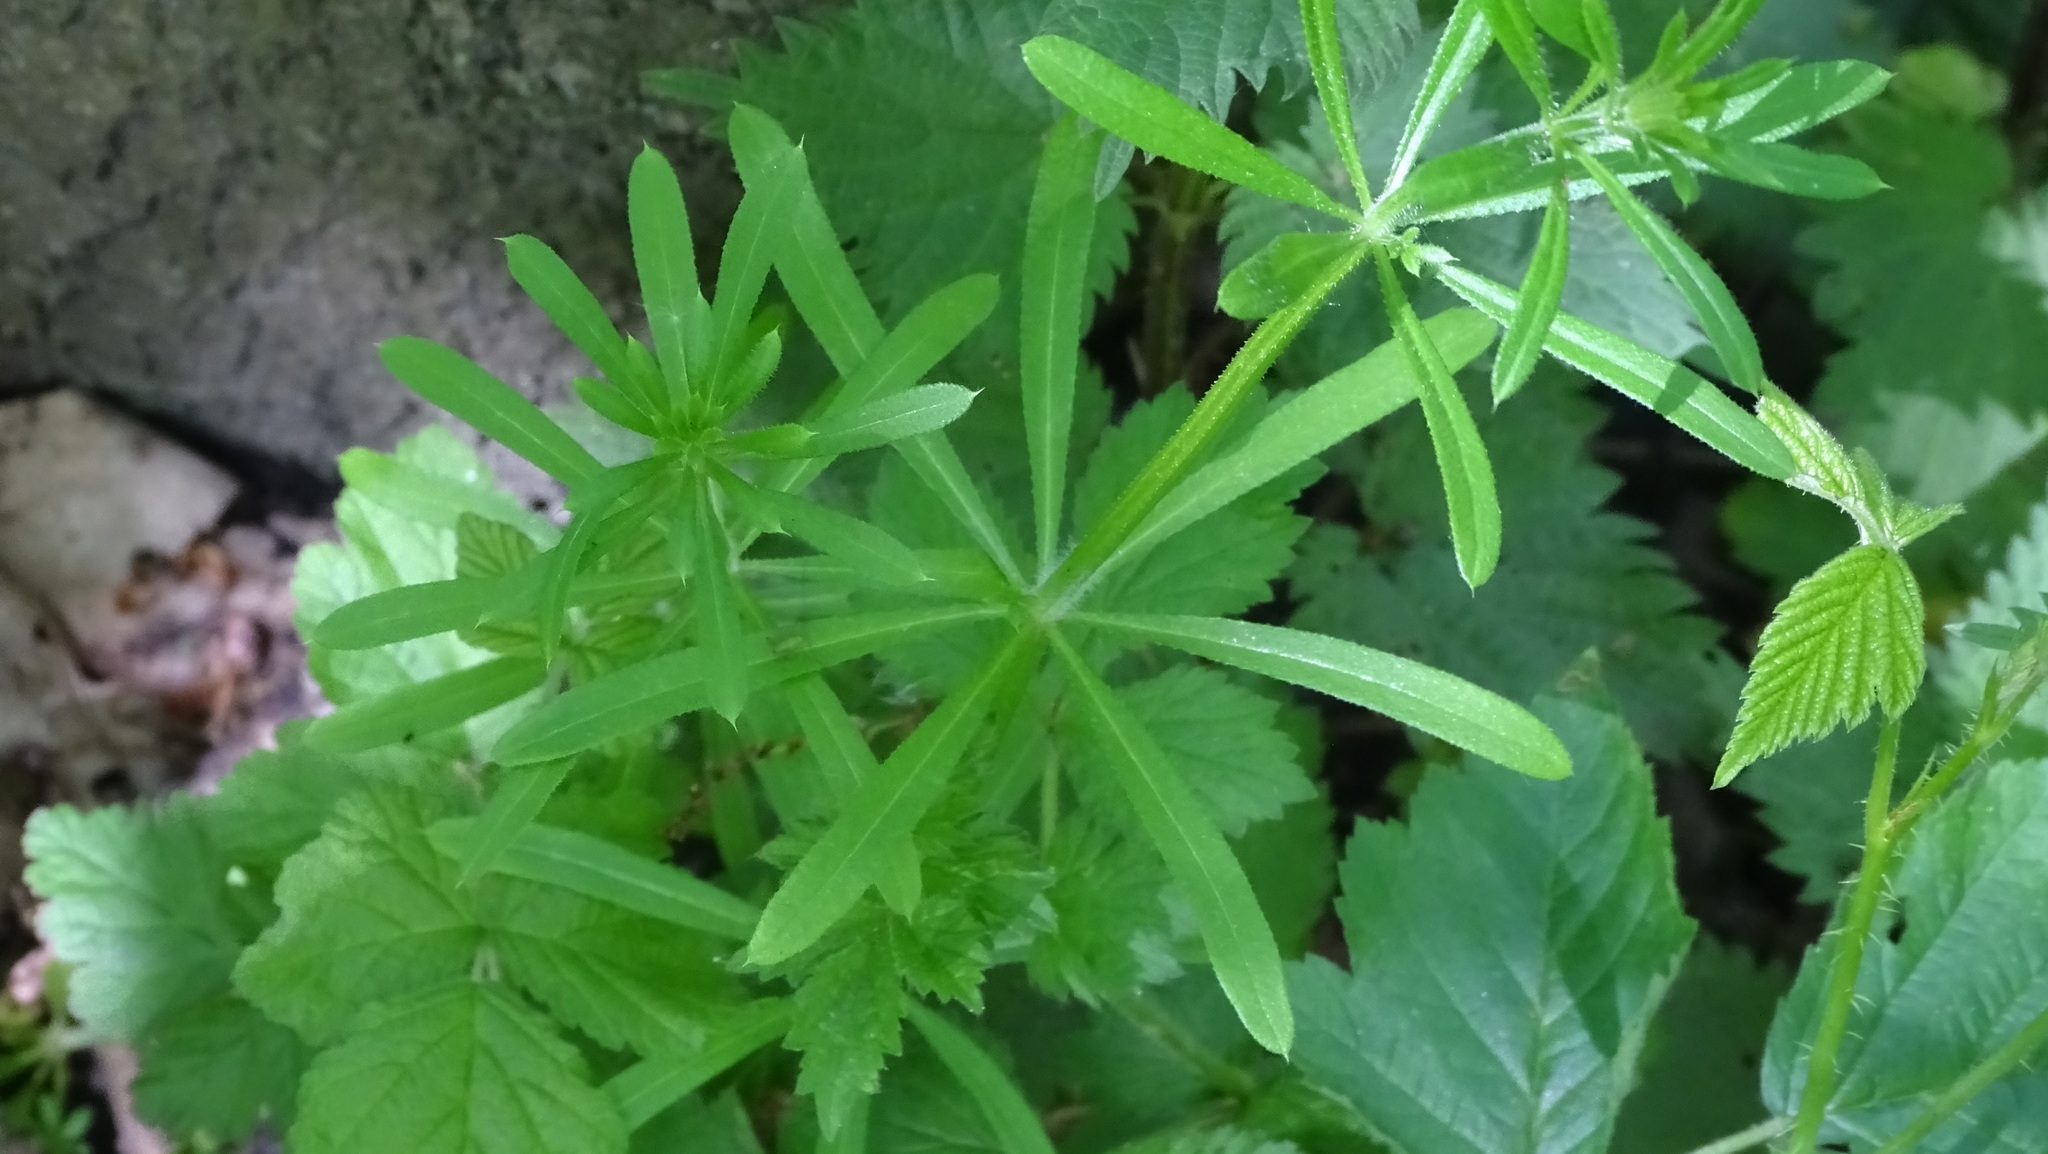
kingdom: Plantae
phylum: Tracheophyta
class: Magnoliopsida
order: Gentianales
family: Rubiaceae
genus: Galium
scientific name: Galium aparine
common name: Cleavers
